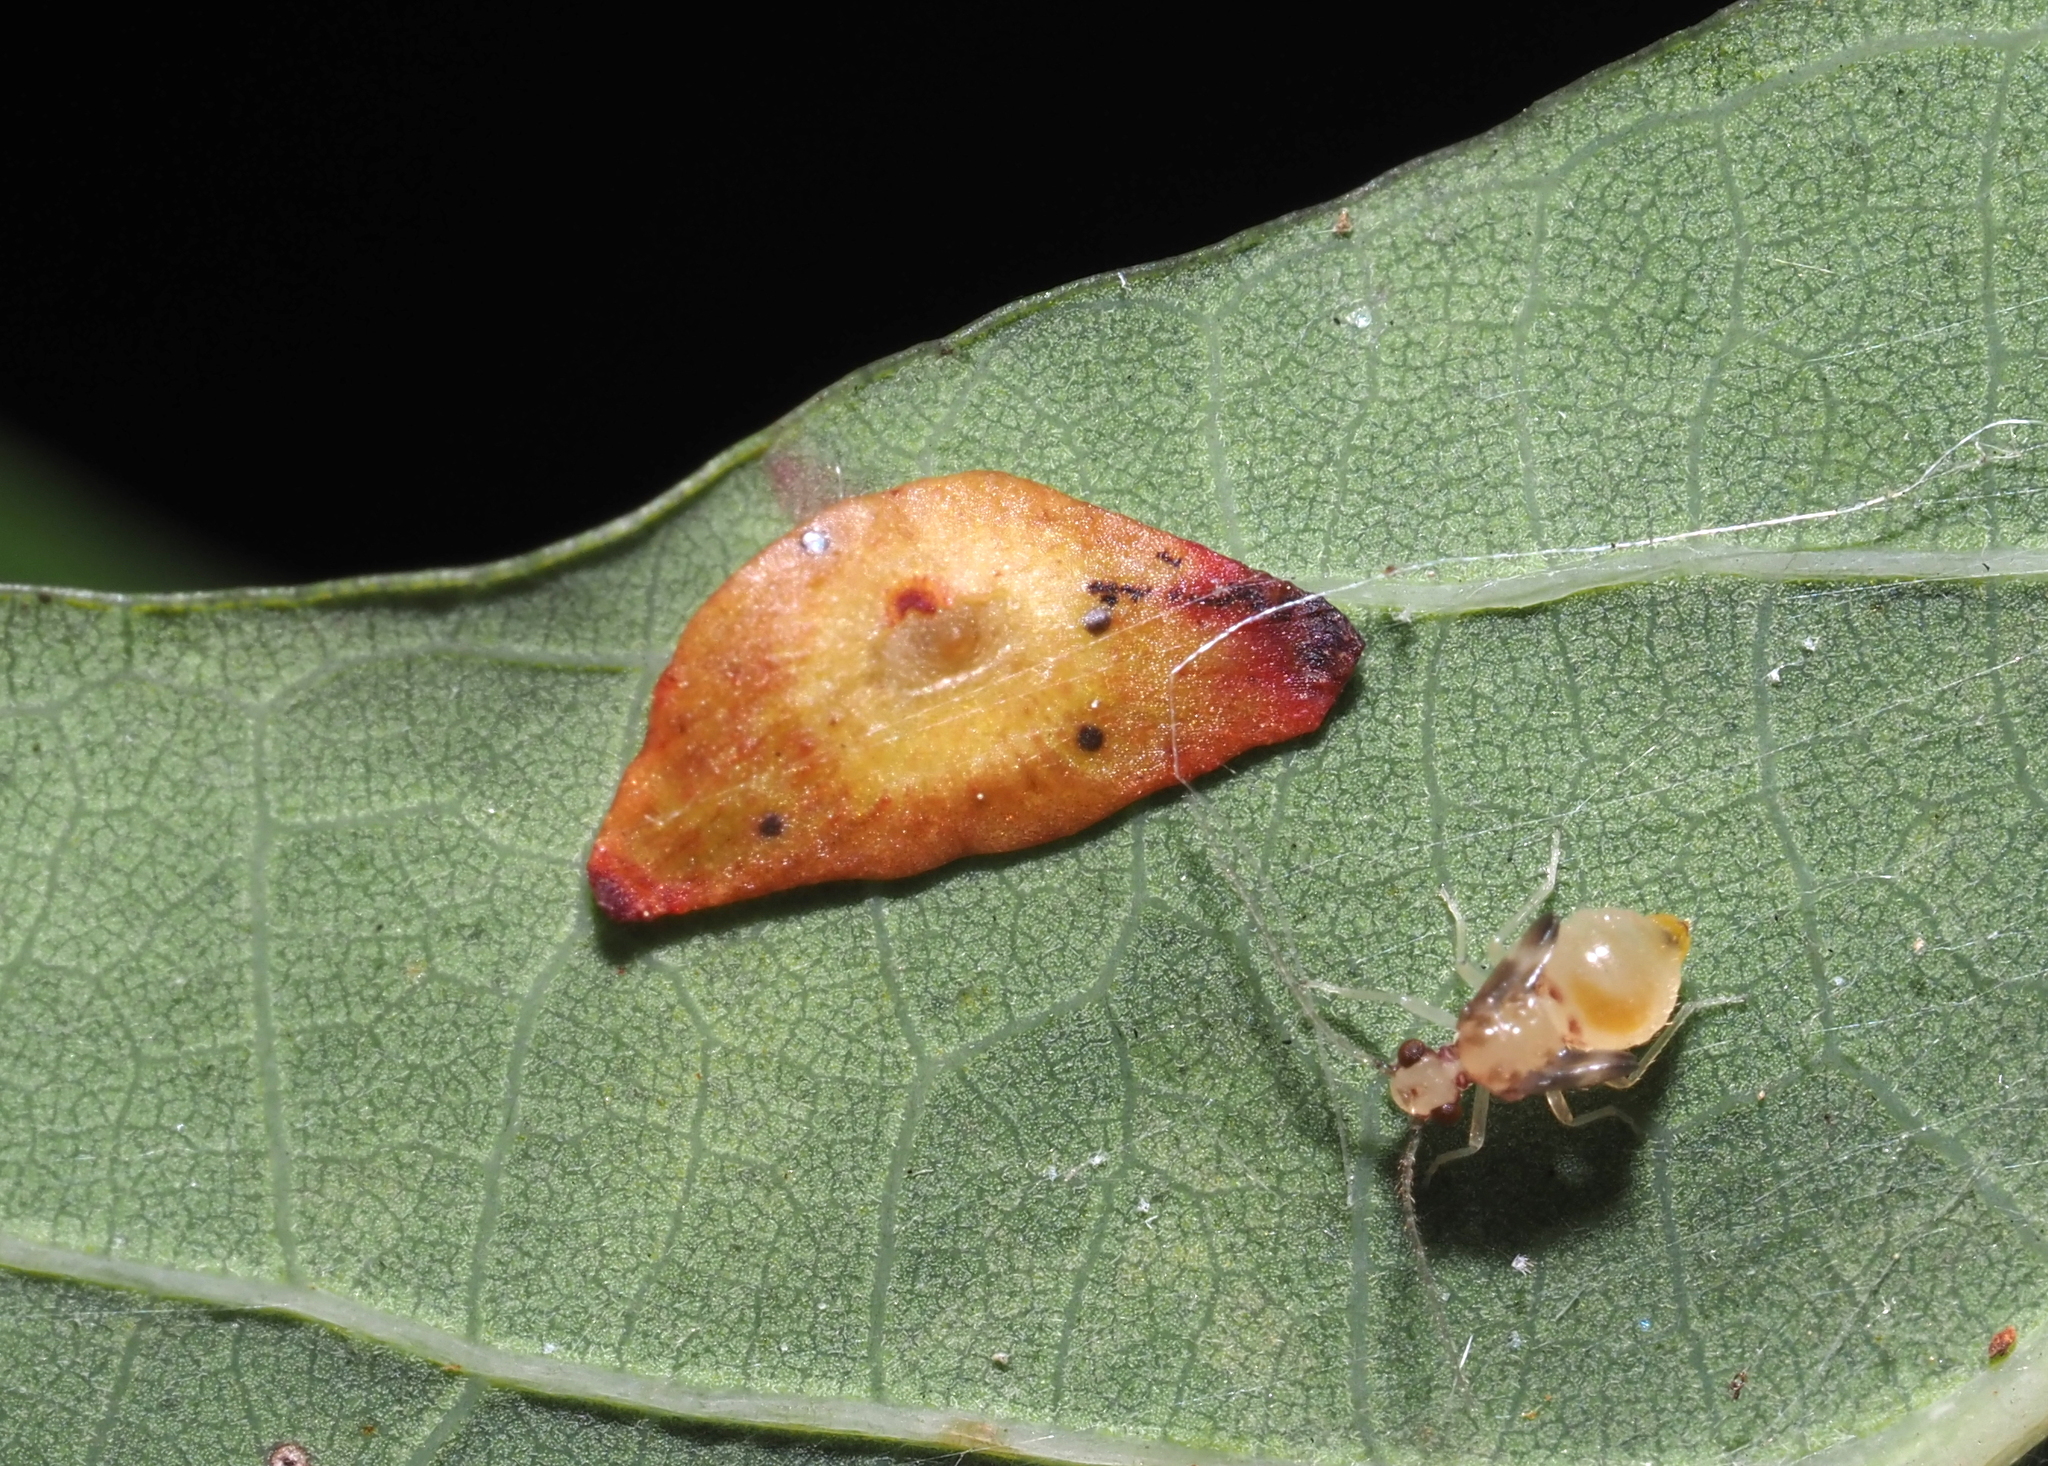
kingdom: Animalia
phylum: Arthropoda
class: Insecta
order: Hymenoptera
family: Cynipidae
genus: Phylloteras
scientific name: Phylloteras
